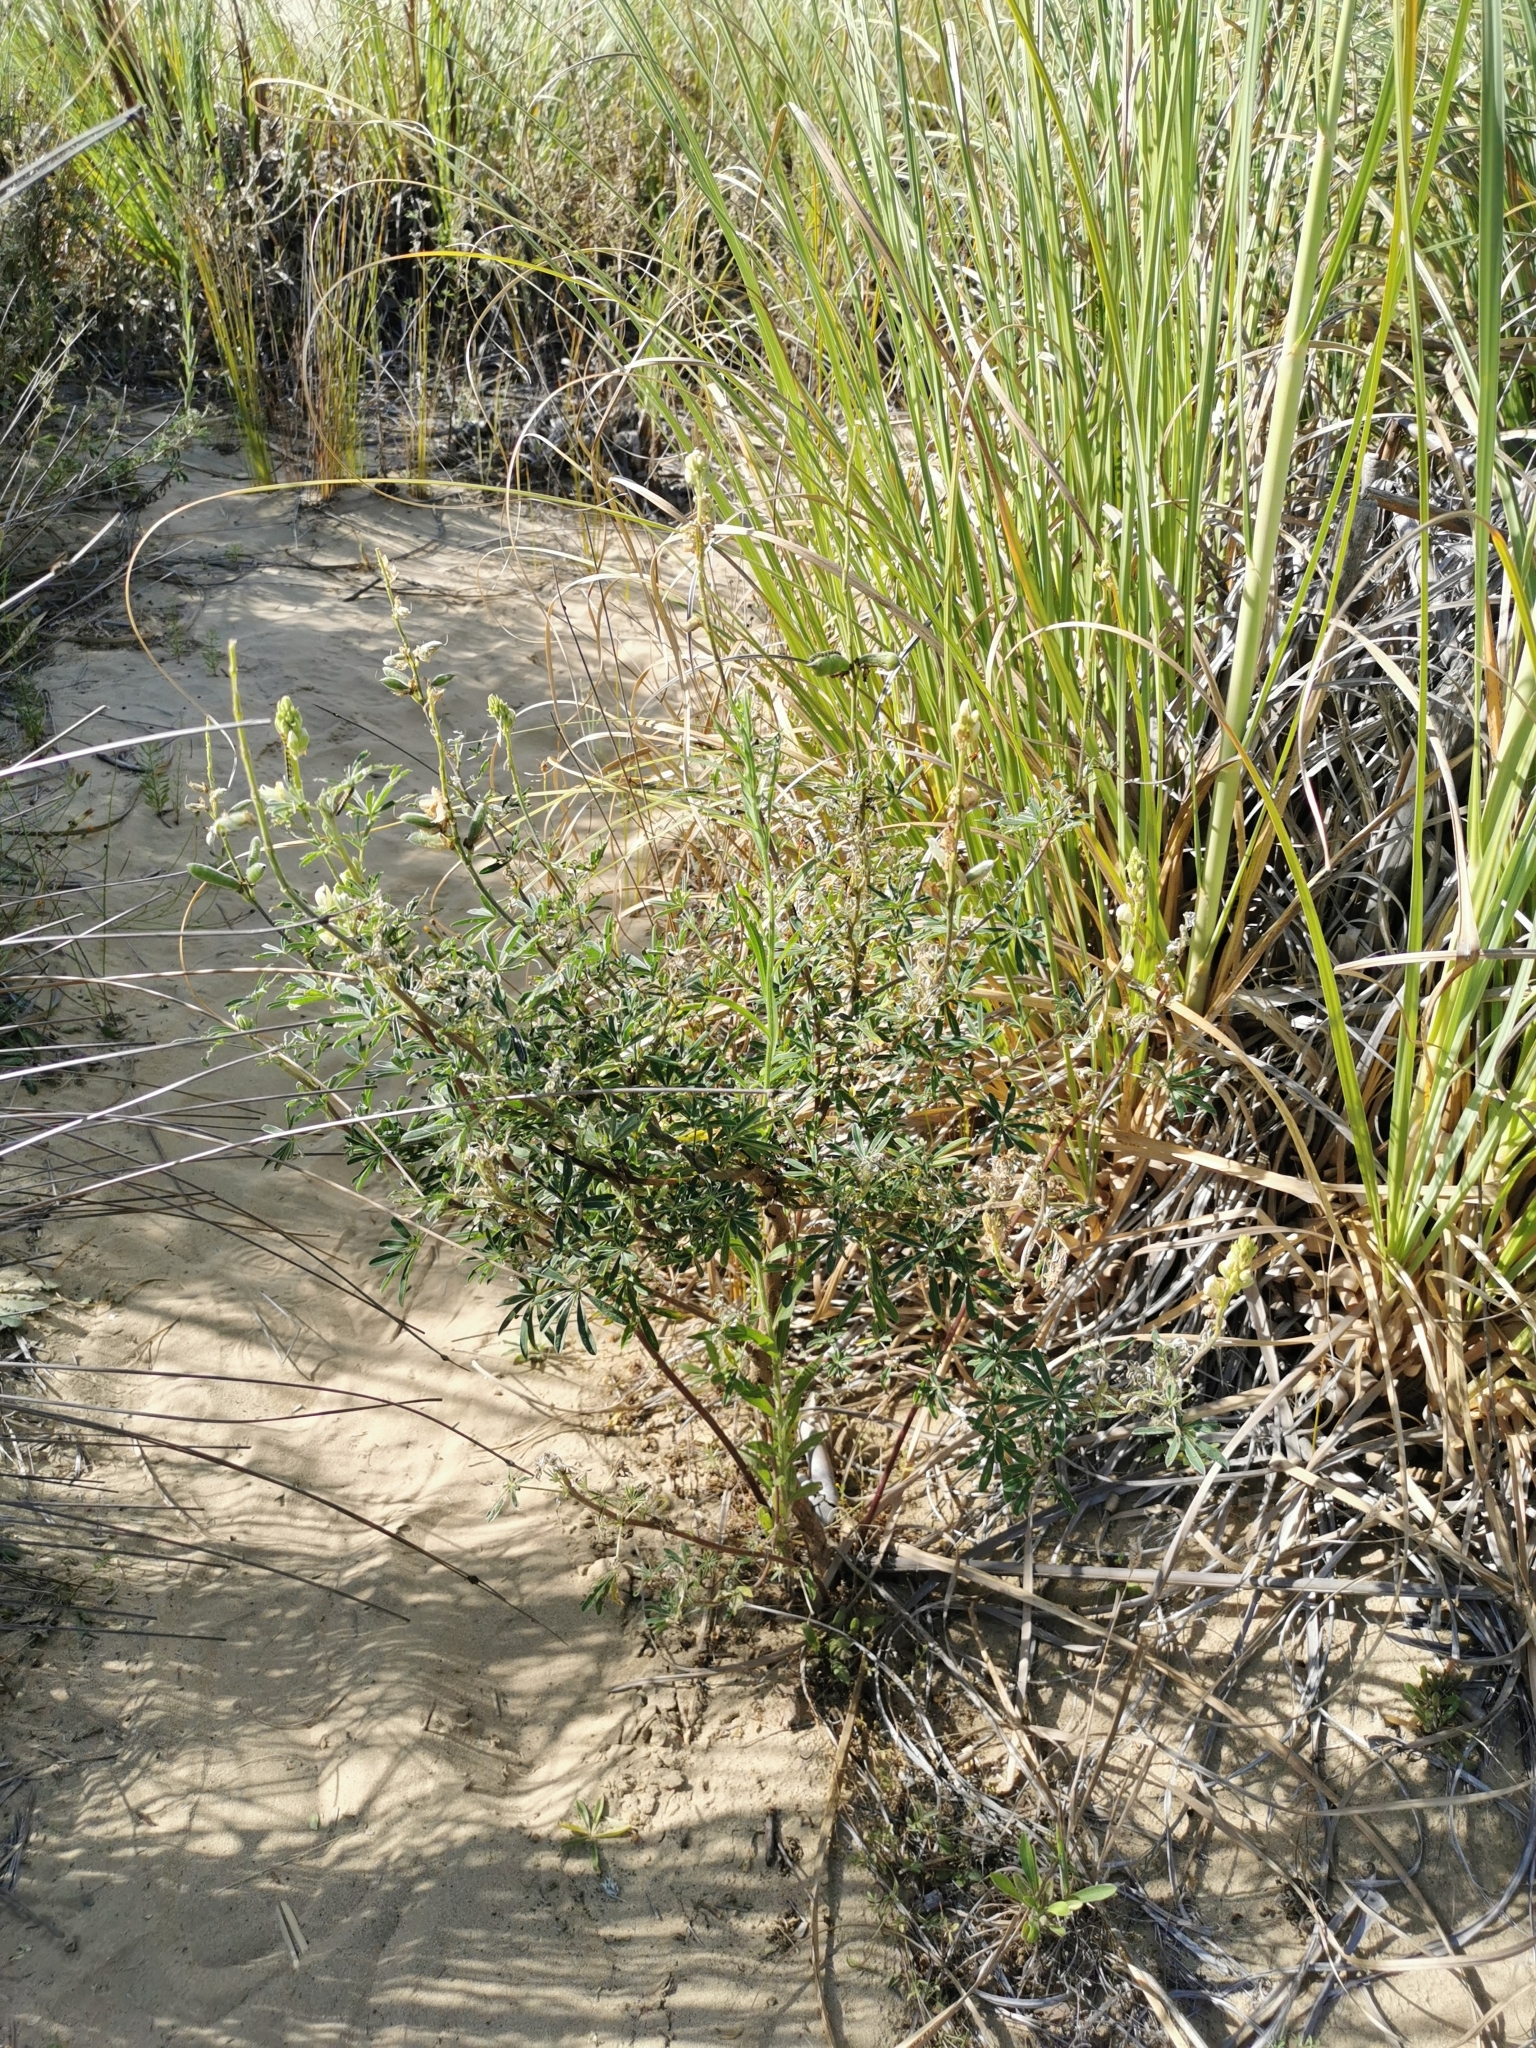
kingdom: Plantae
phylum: Tracheophyta
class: Magnoliopsida
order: Fabales
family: Fabaceae
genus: Lupinus
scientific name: Lupinus arboreus
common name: Yellow bush lupine
